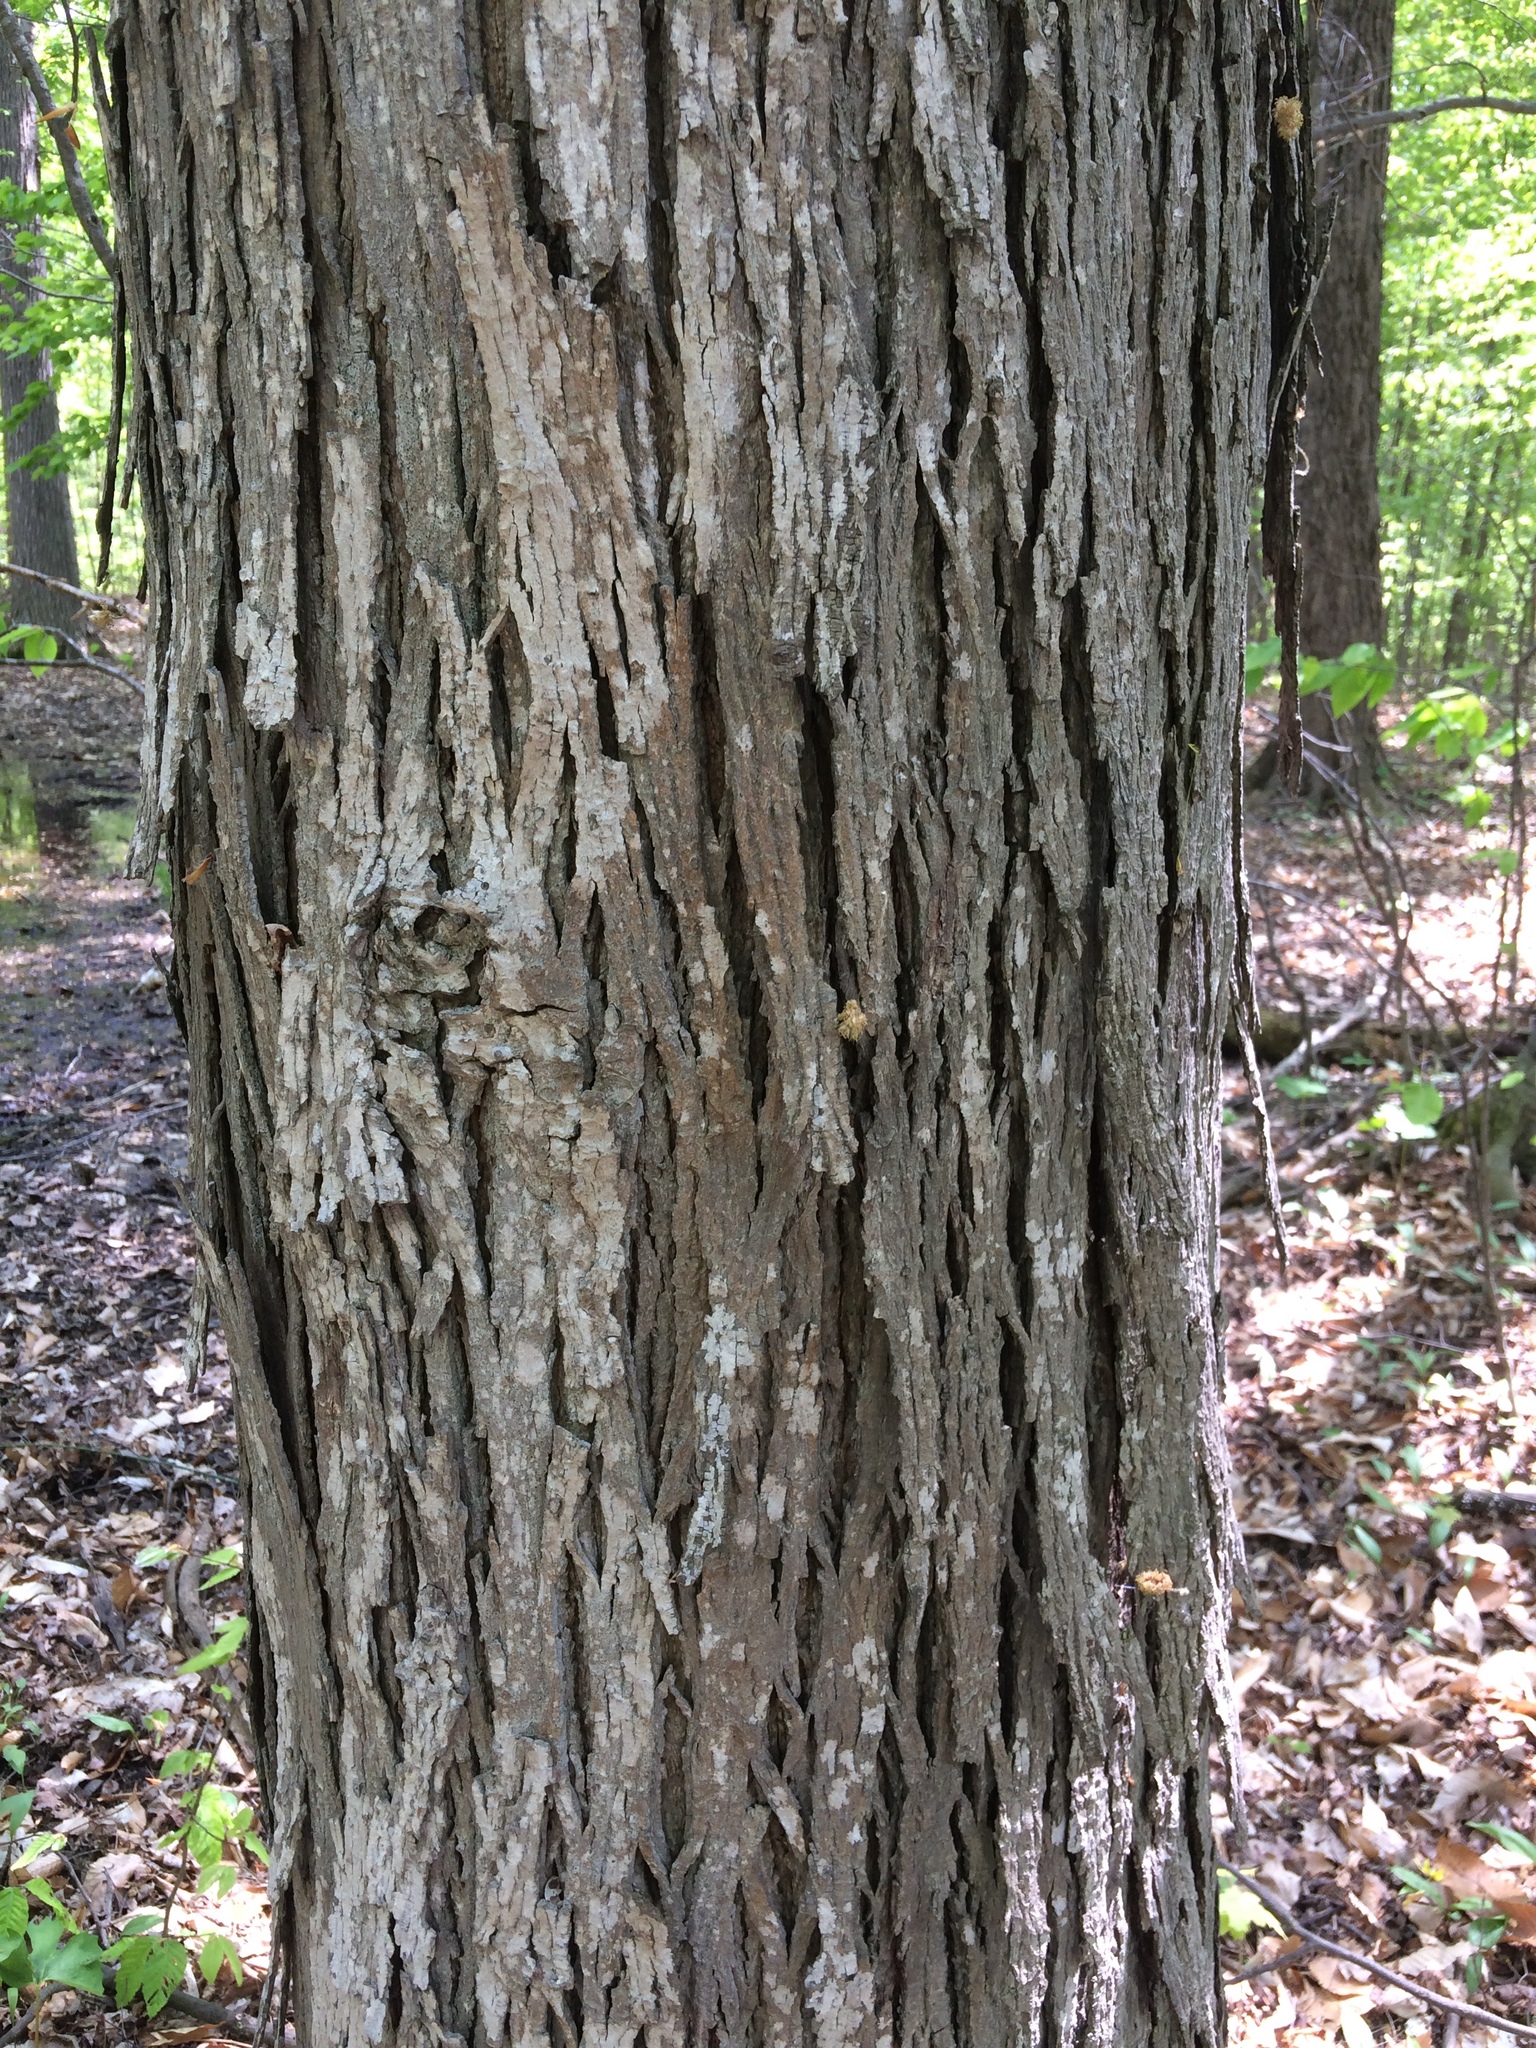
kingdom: Plantae
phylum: Tracheophyta
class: Magnoliopsida
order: Fagales
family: Juglandaceae
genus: Carya
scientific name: Carya ovata
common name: Shagbark hickory
